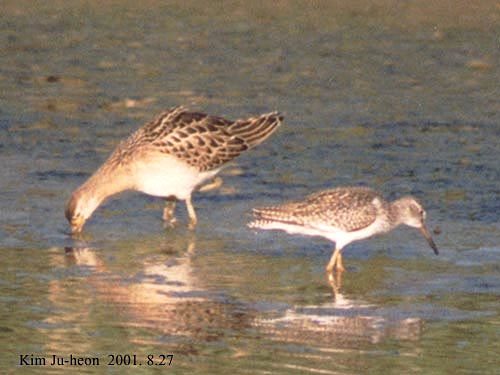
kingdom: Animalia
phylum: Chordata
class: Aves
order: Charadriiformes
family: Scolopacidae
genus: Calidris
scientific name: Calidris pugnax
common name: Ruff
